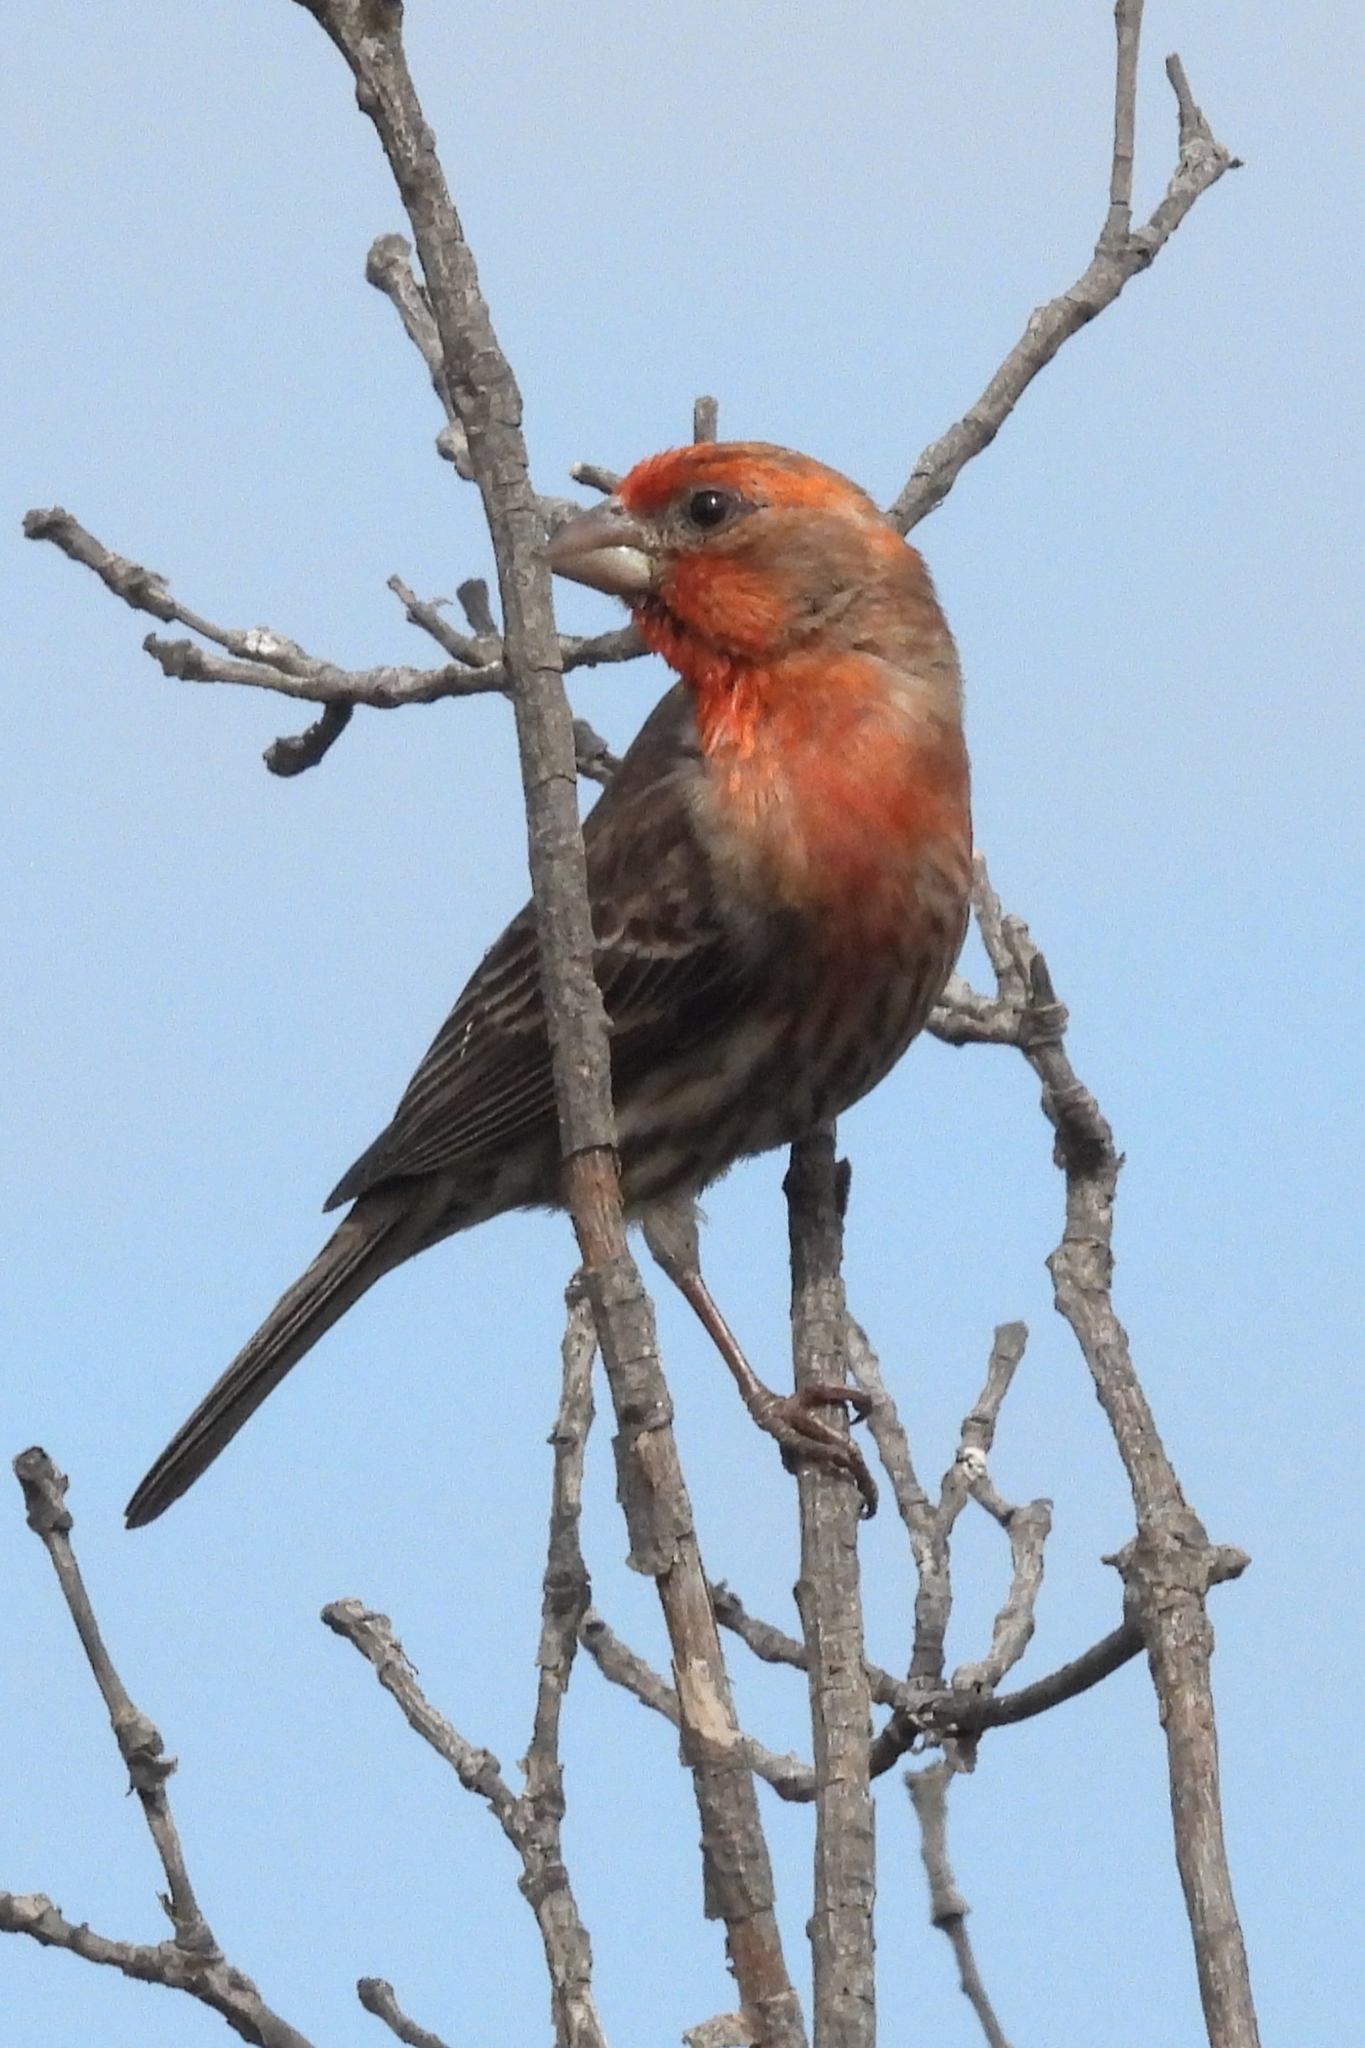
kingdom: Animalia
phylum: Chordata
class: Aves
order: Passeriformes
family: Fringillidae
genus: Haemorhous
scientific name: Haemorhous mexicanus
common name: House finch
